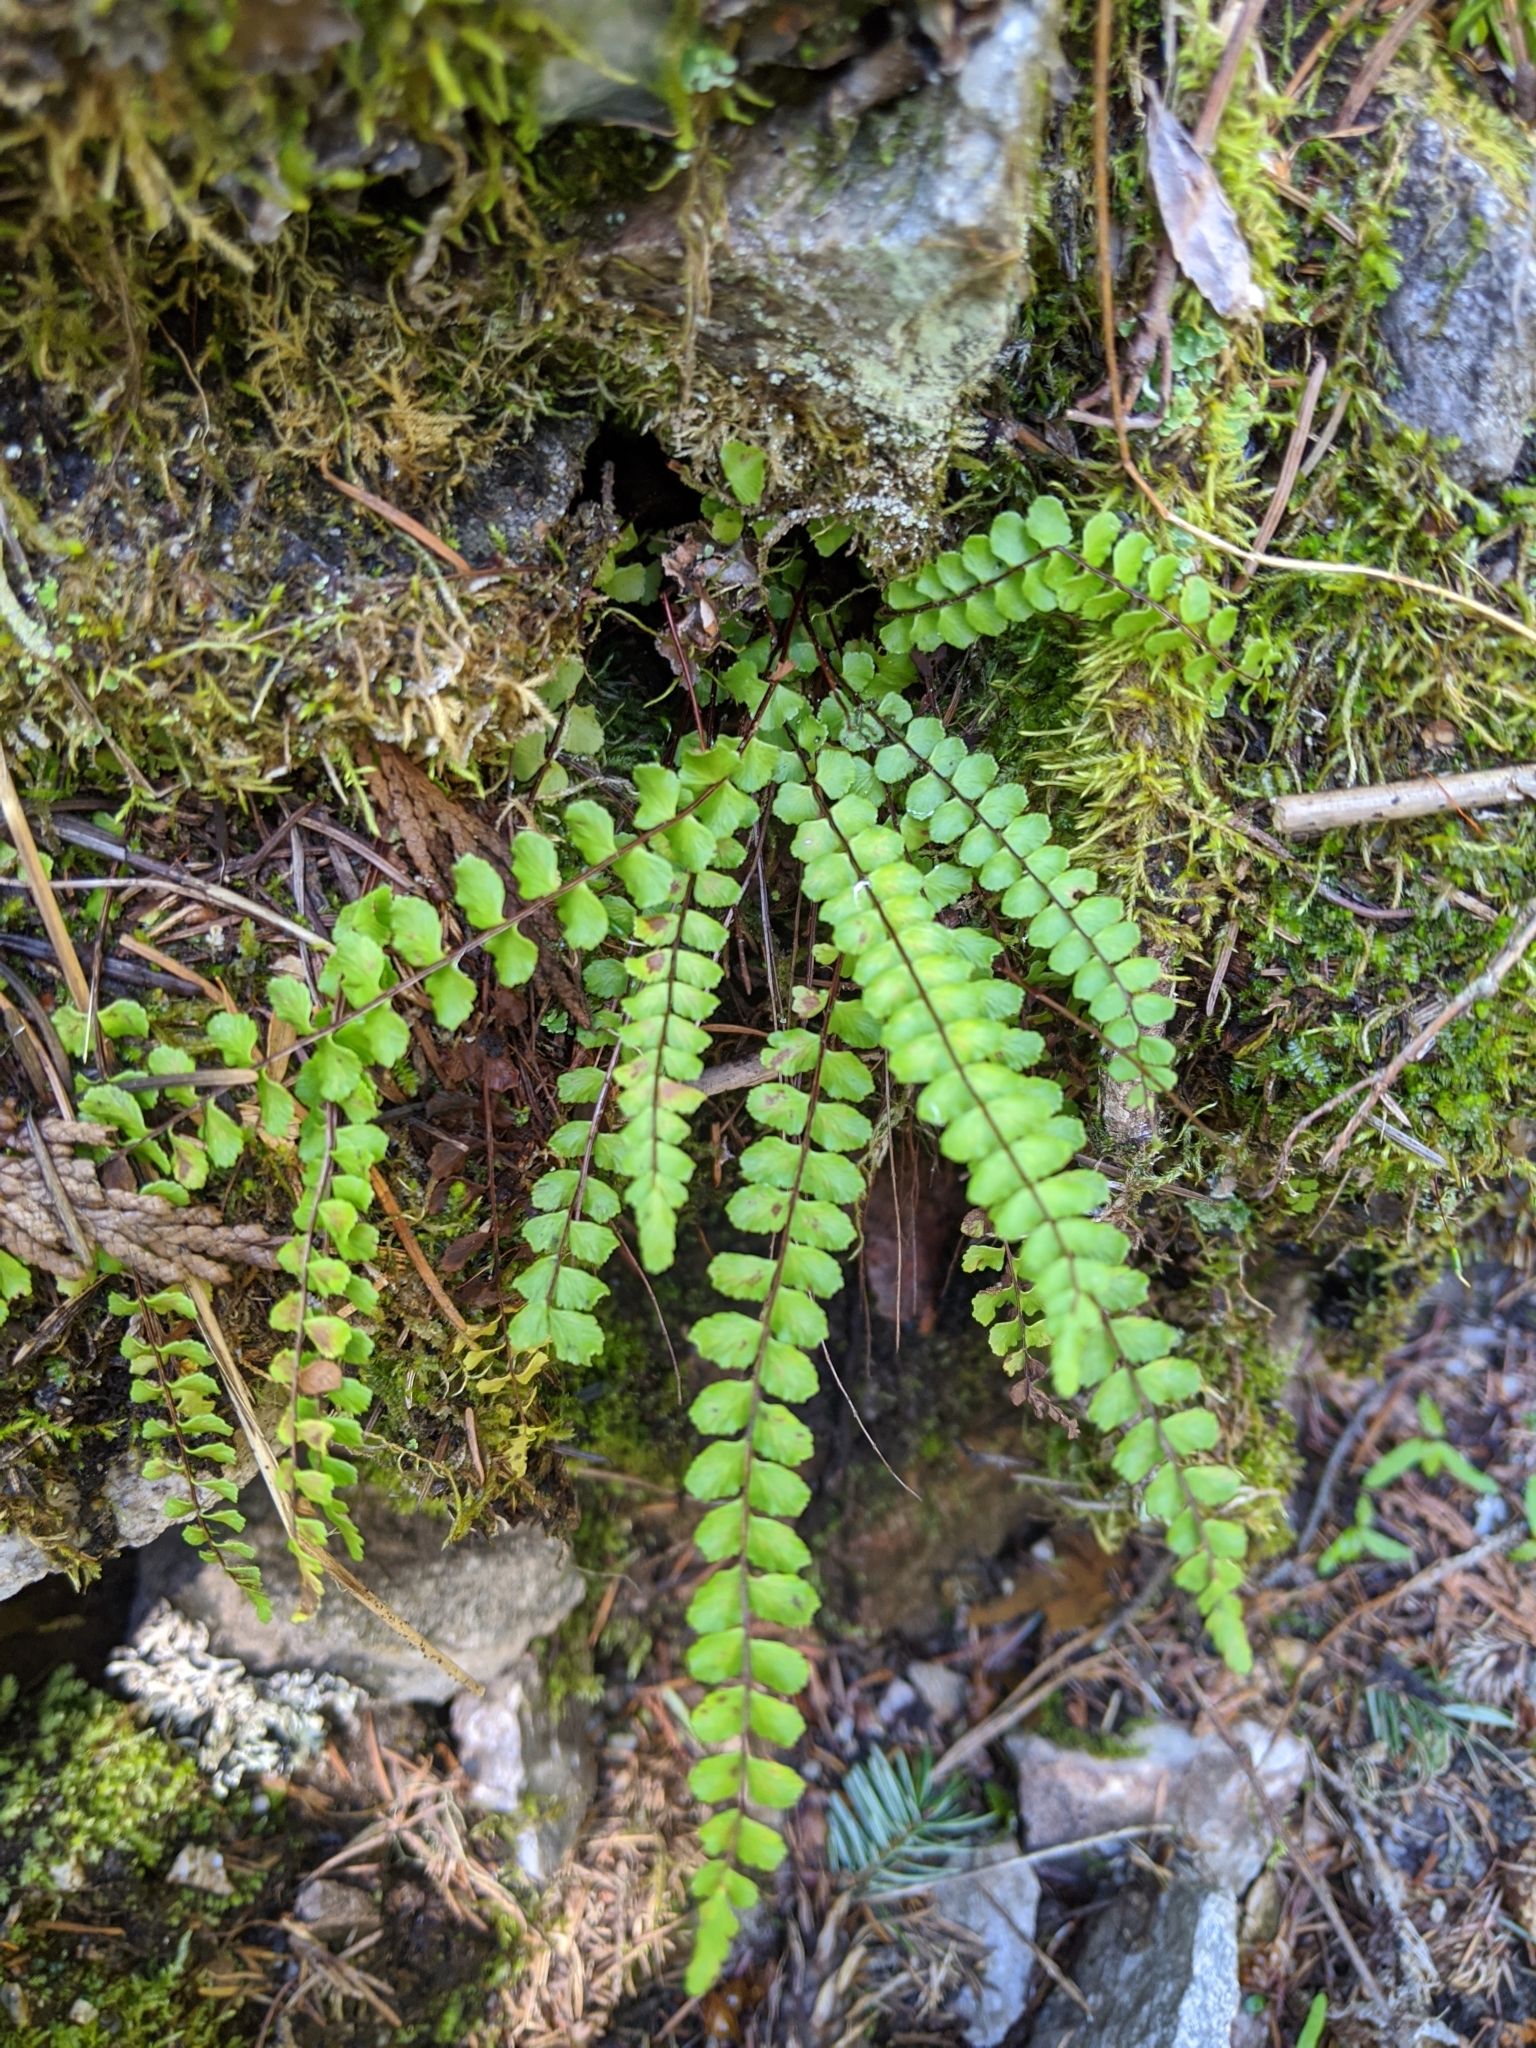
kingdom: Plantae
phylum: Tracheophyta
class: Polypodiopsida
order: Polypodiales
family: Aspleniaceae
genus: Asplenium
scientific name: Asplenium trichomanes
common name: Maidenhair spleenwort
